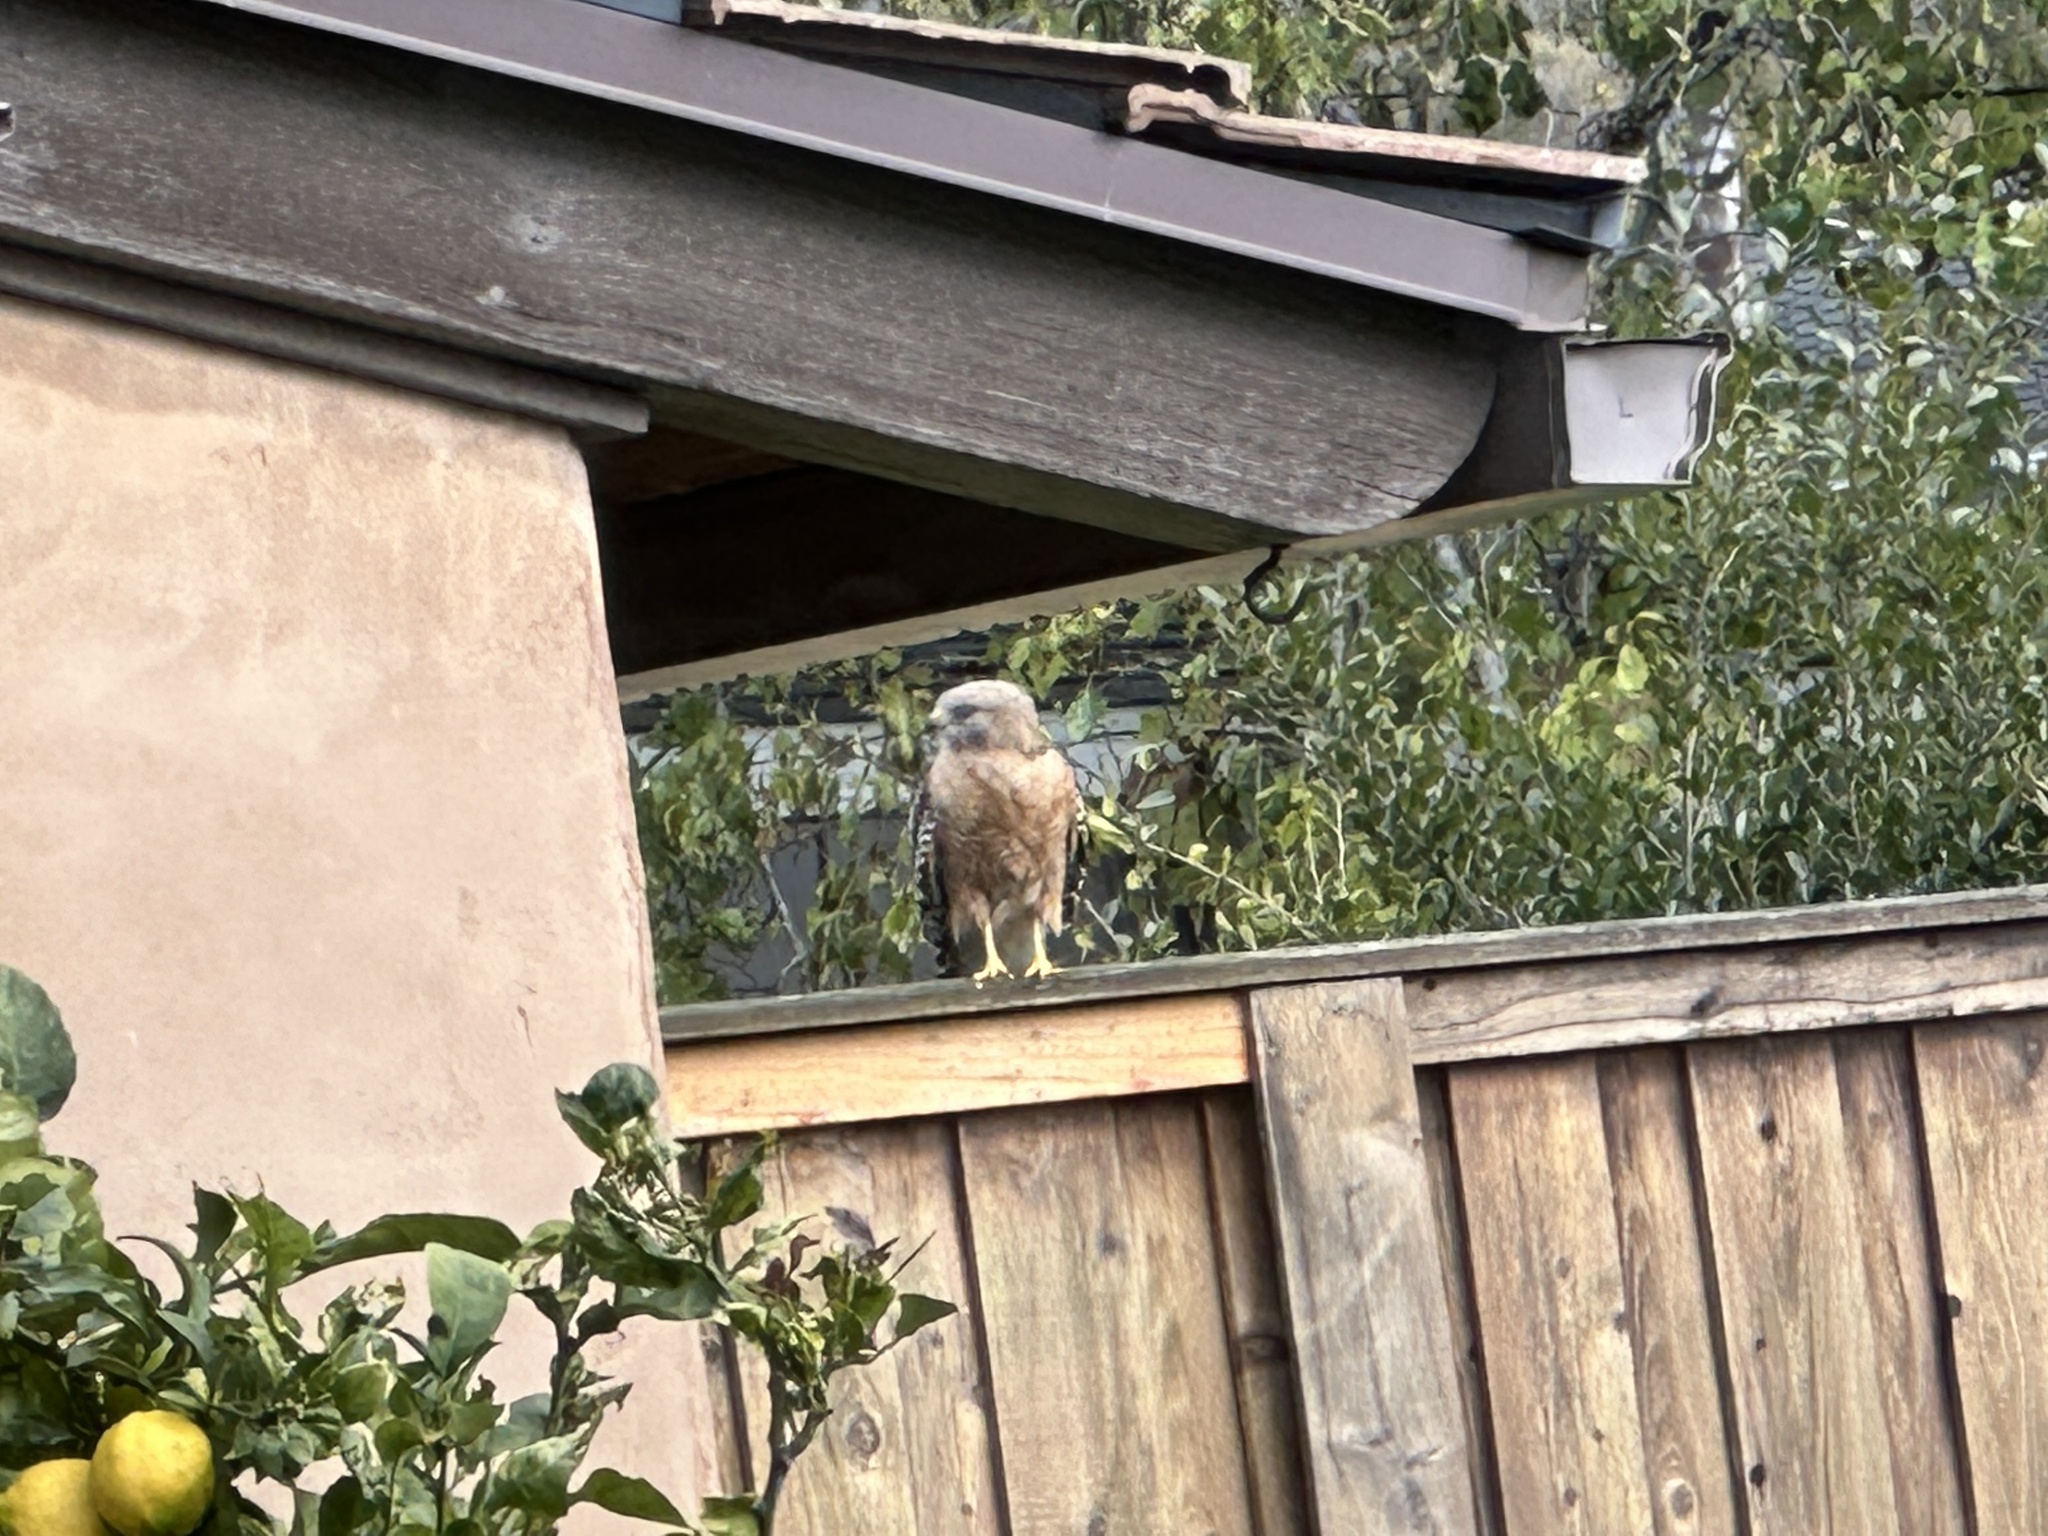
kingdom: Animalia
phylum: Chordata
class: Aves
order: Accipitriformes
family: Accipitridae
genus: Buteo
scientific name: Buteo lineatus
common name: Red-shouldered hawk
